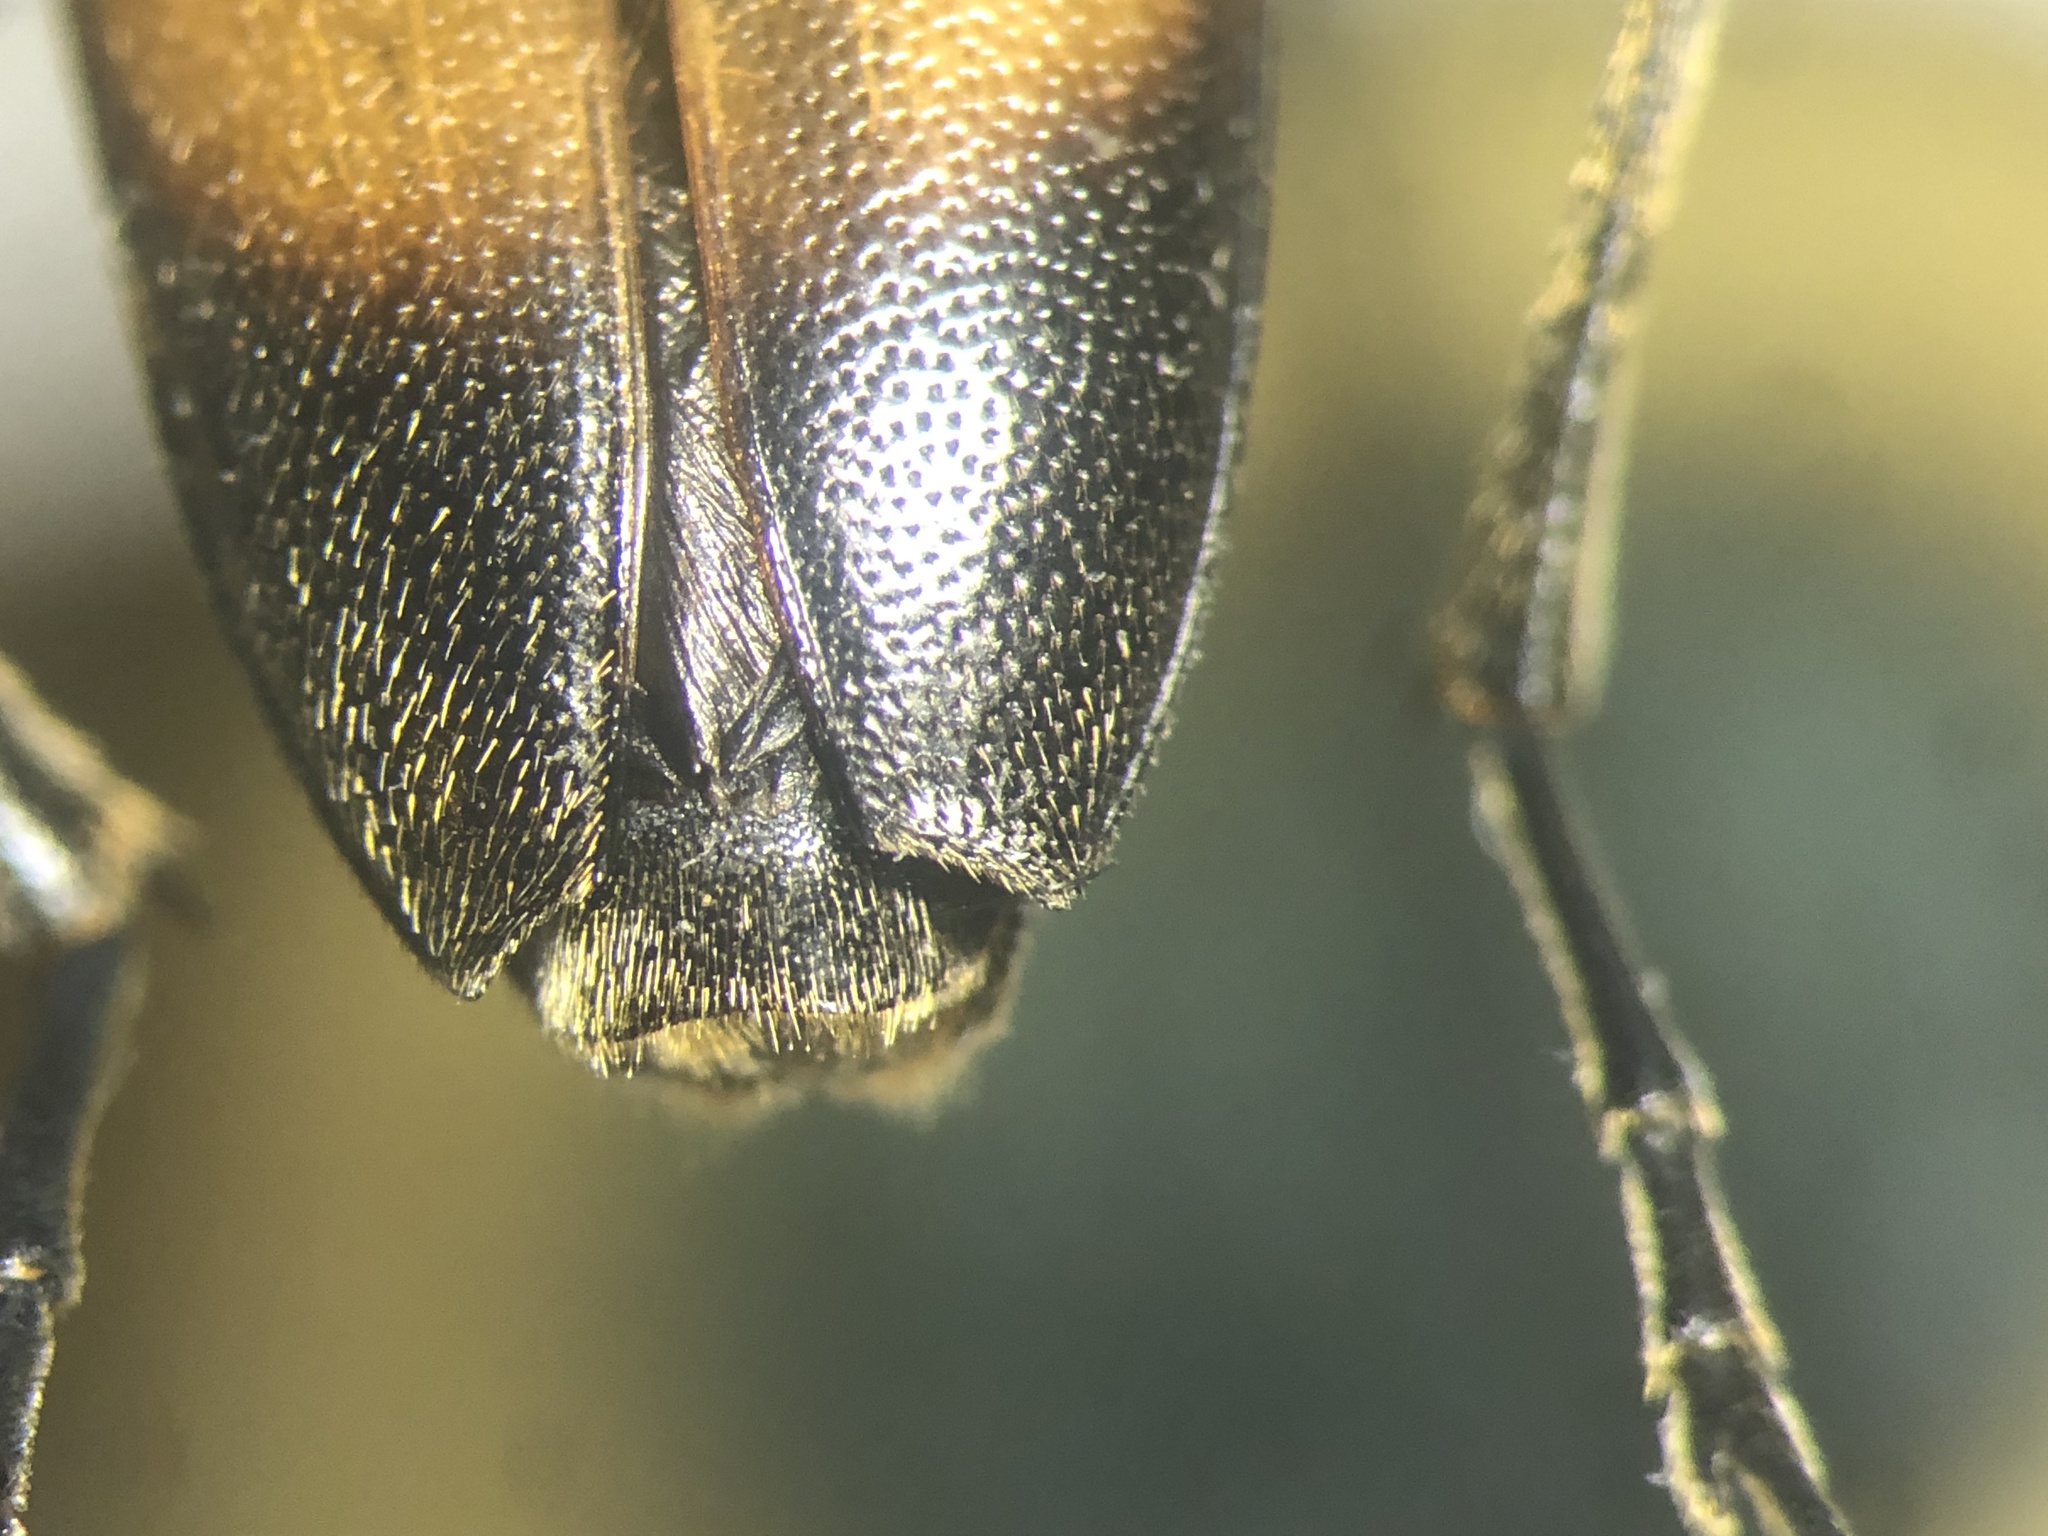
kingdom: Animalia
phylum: Arthropoda
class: Insecta
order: Coleoptera
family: Cerambycidae
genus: Trigonarthris
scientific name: Trigonarthris proxima
